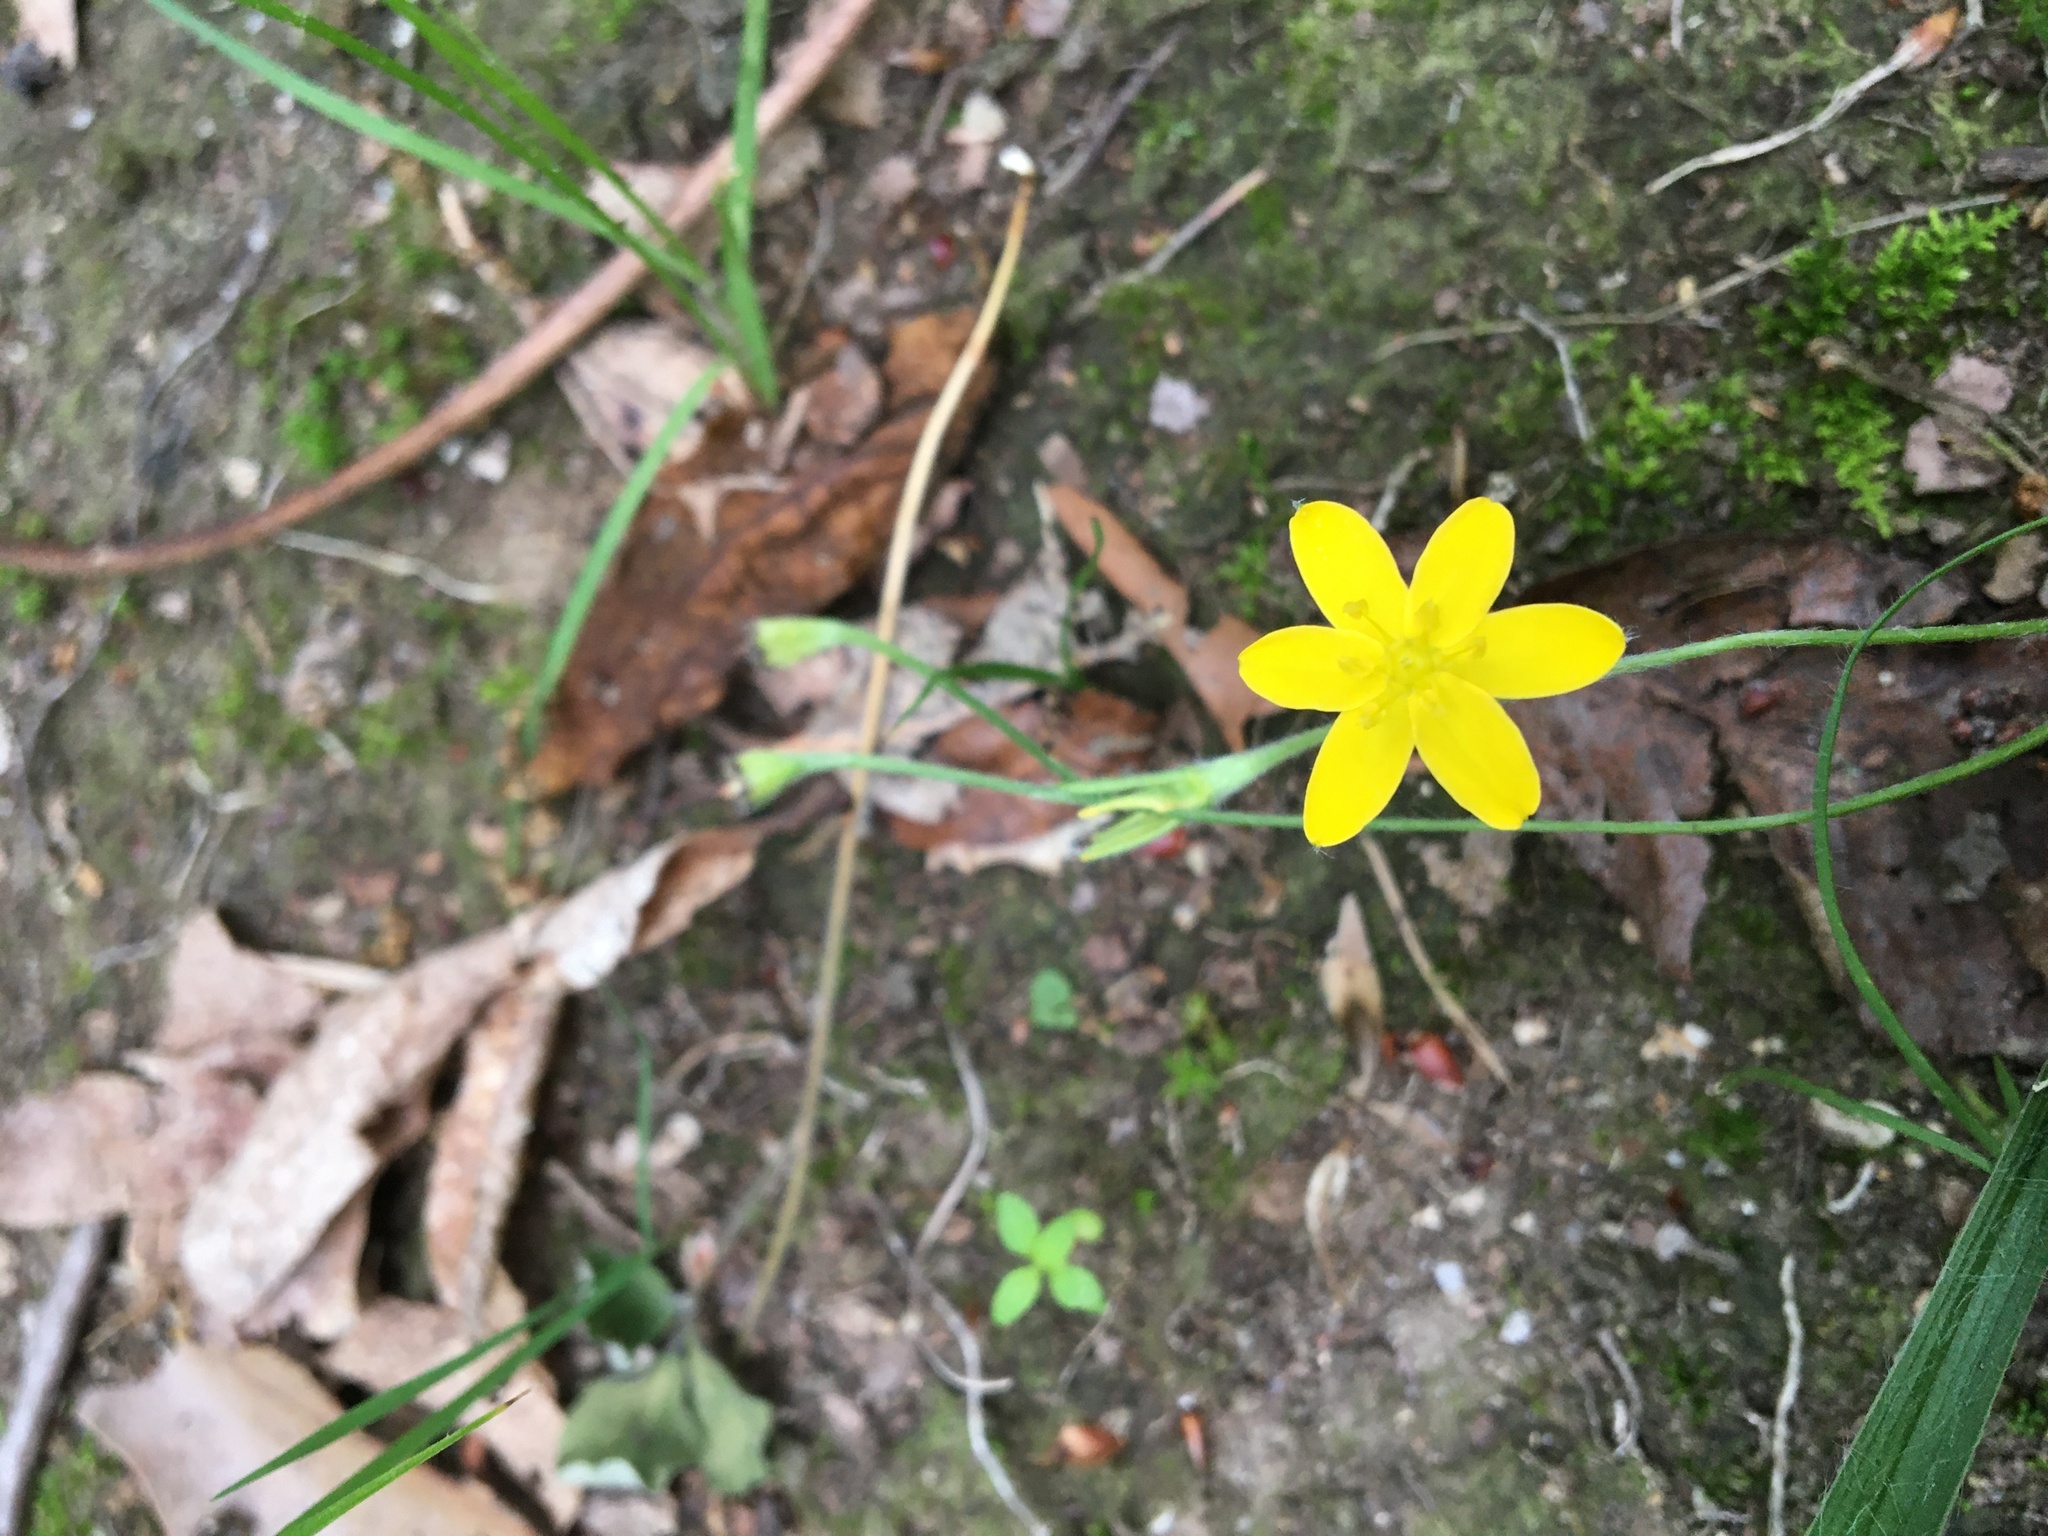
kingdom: Plantae
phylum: Tracheophyta
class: Liliopsida
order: Asparagales
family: Hypoxidaceae
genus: Hypoxis
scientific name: Hypoxis hirsuta
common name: Common goldstar
